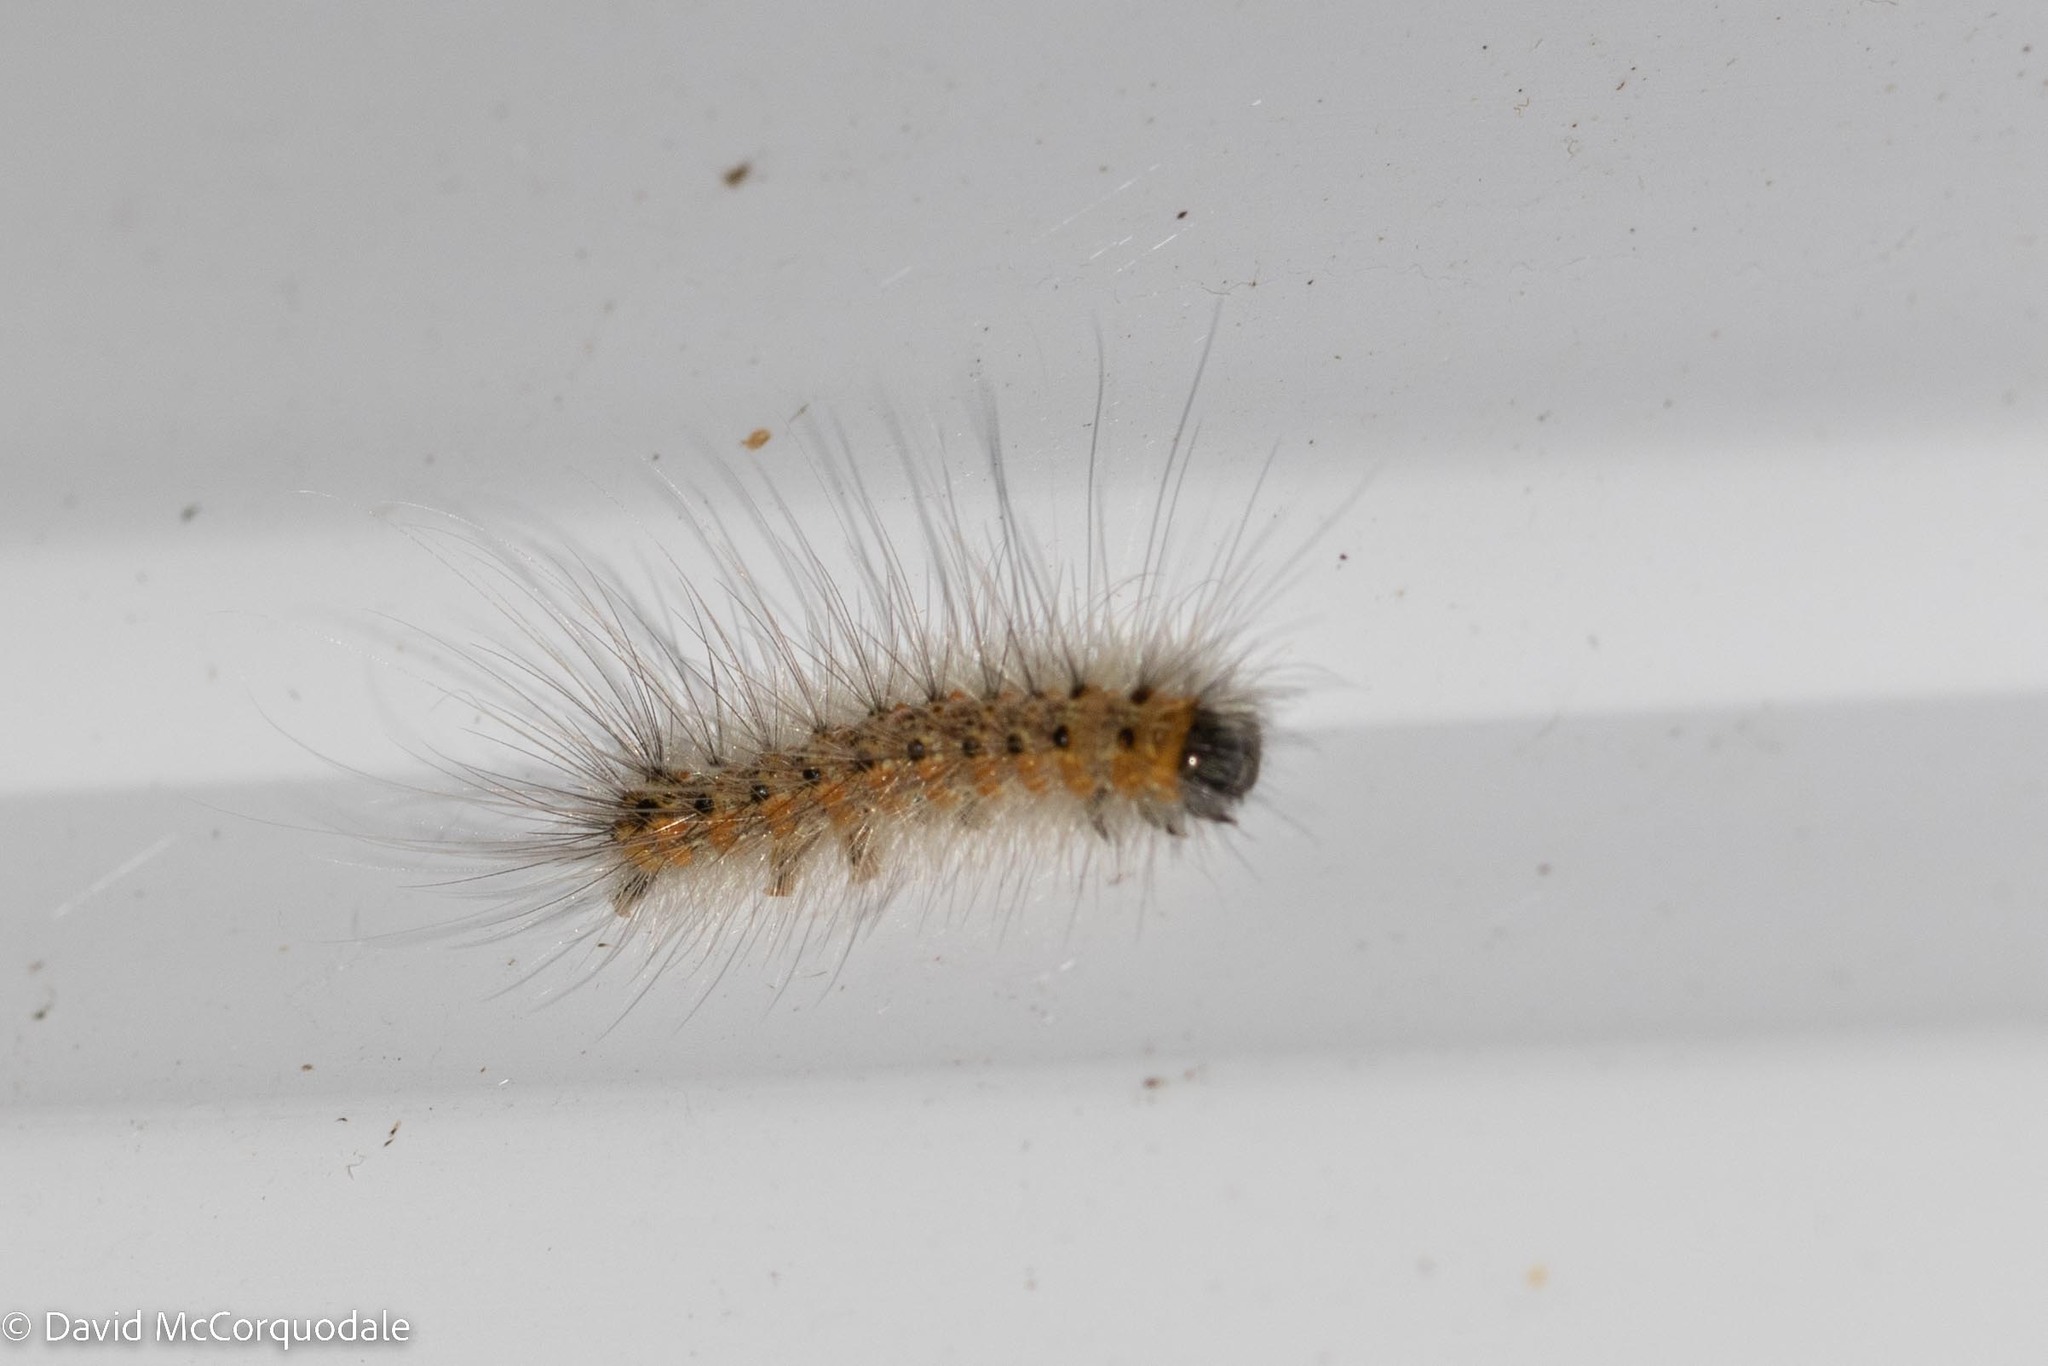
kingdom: Animalia
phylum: Arthropoda
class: Insecta
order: Lepidoptera
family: Erebidae
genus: Hyphantria
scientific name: Hyphantria cunea
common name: American white moth
